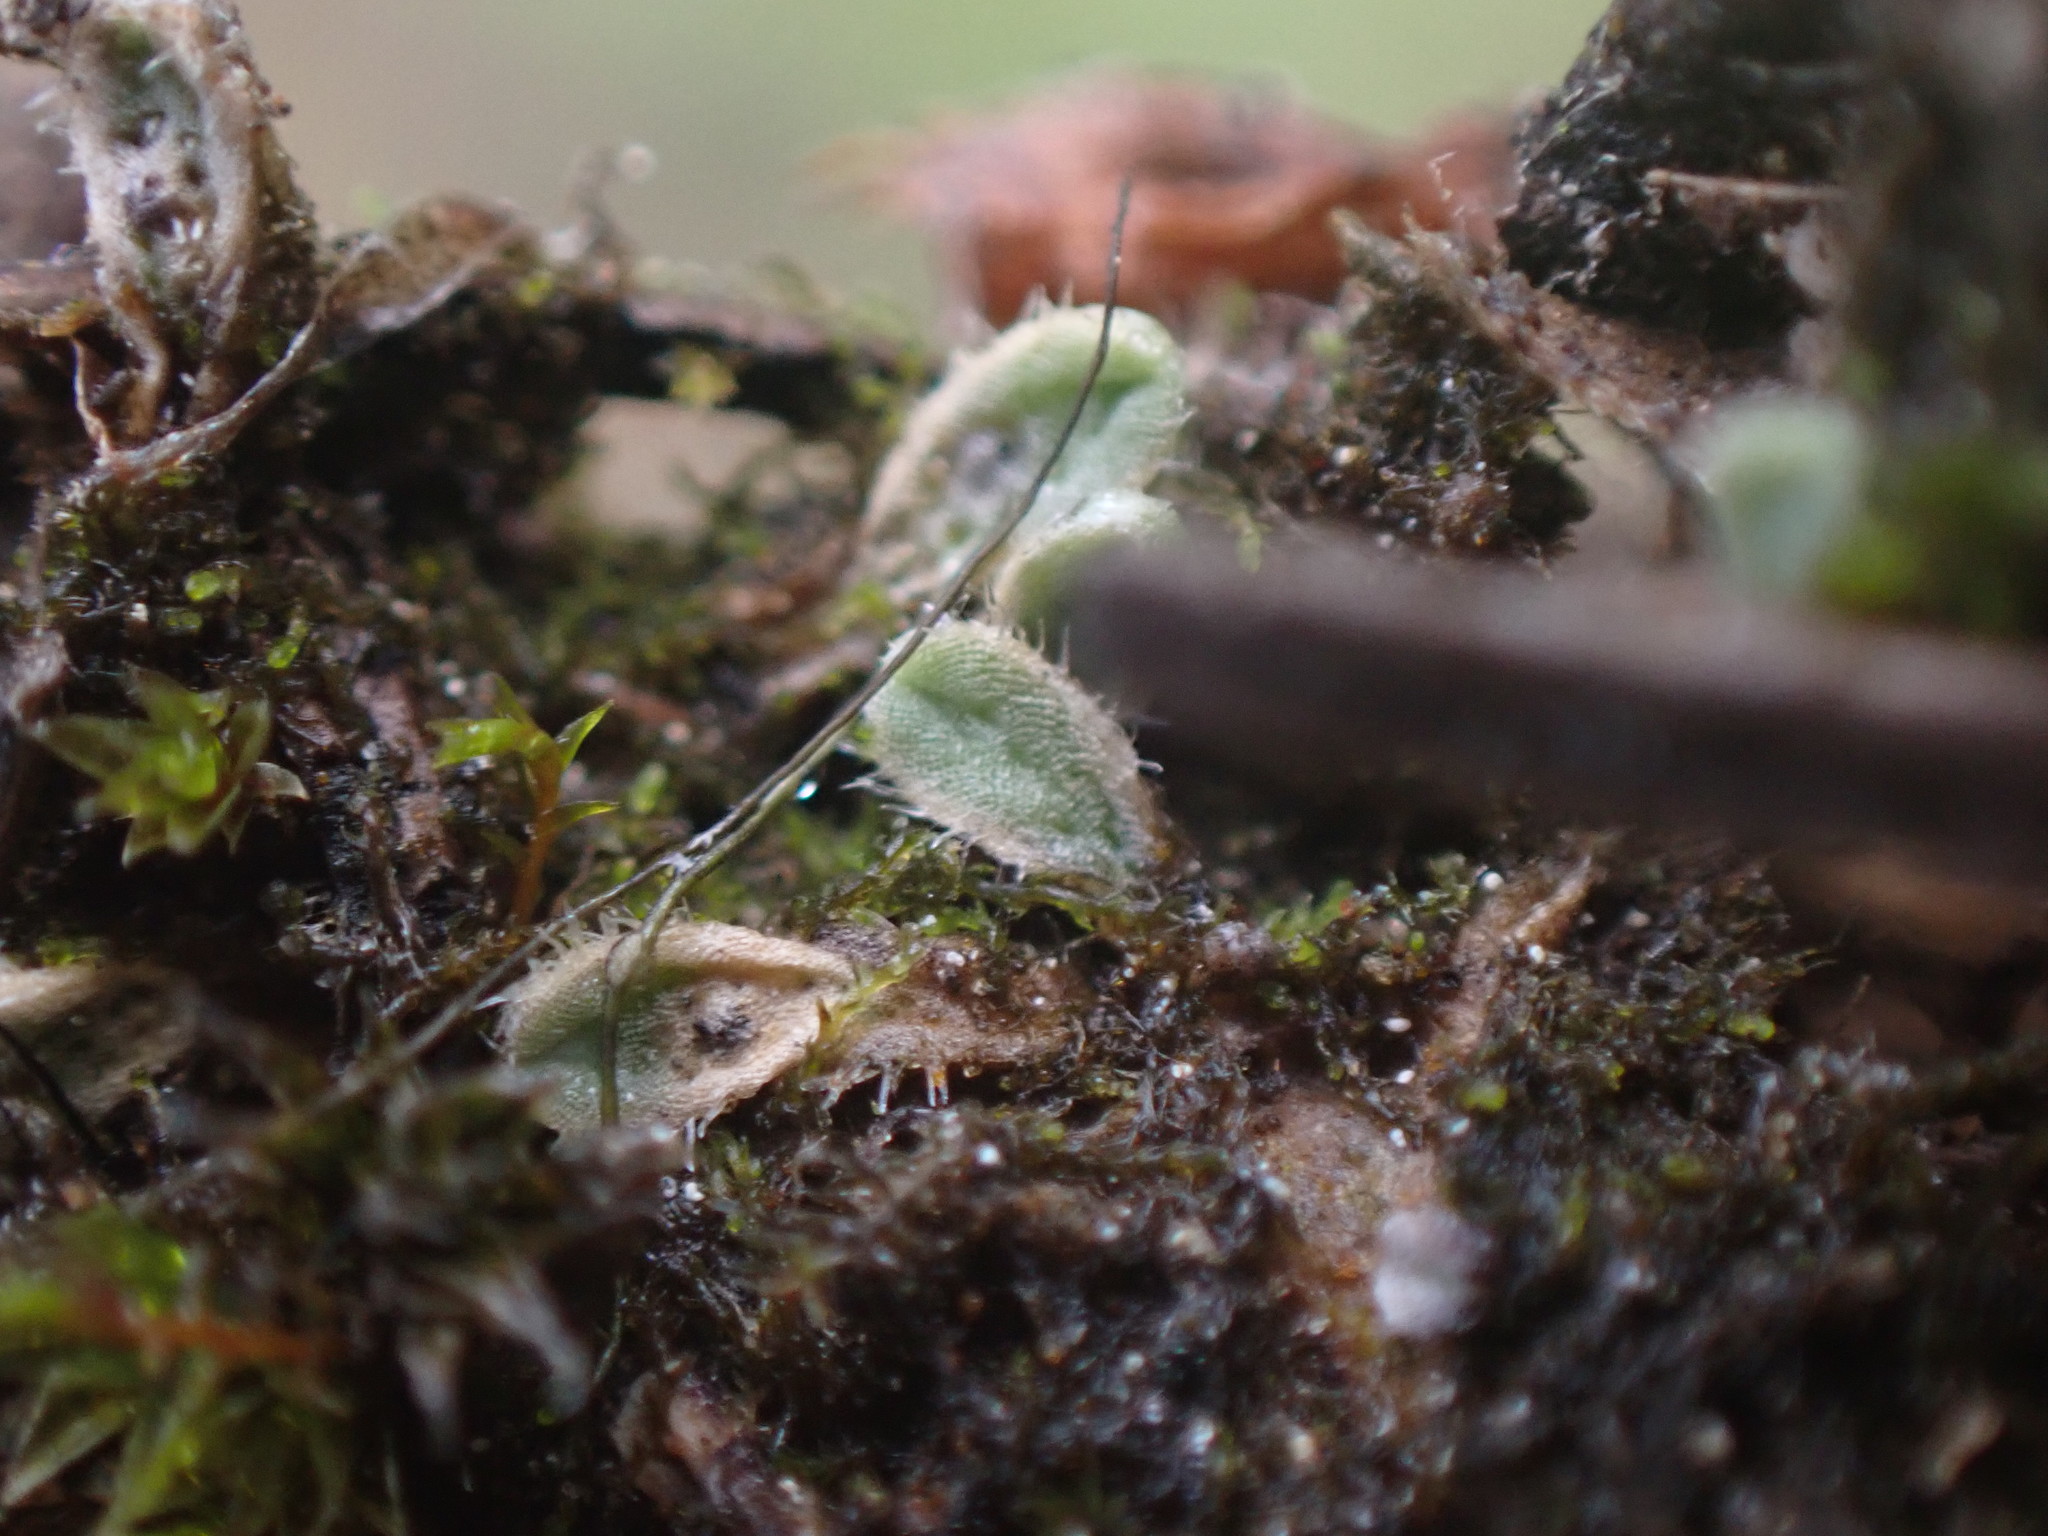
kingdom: Plantae
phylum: Marchantiophyta
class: Marchantiopsida
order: Marchantiales
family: Ricciaceae
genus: Riccia
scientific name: Riccia trichocarpa
